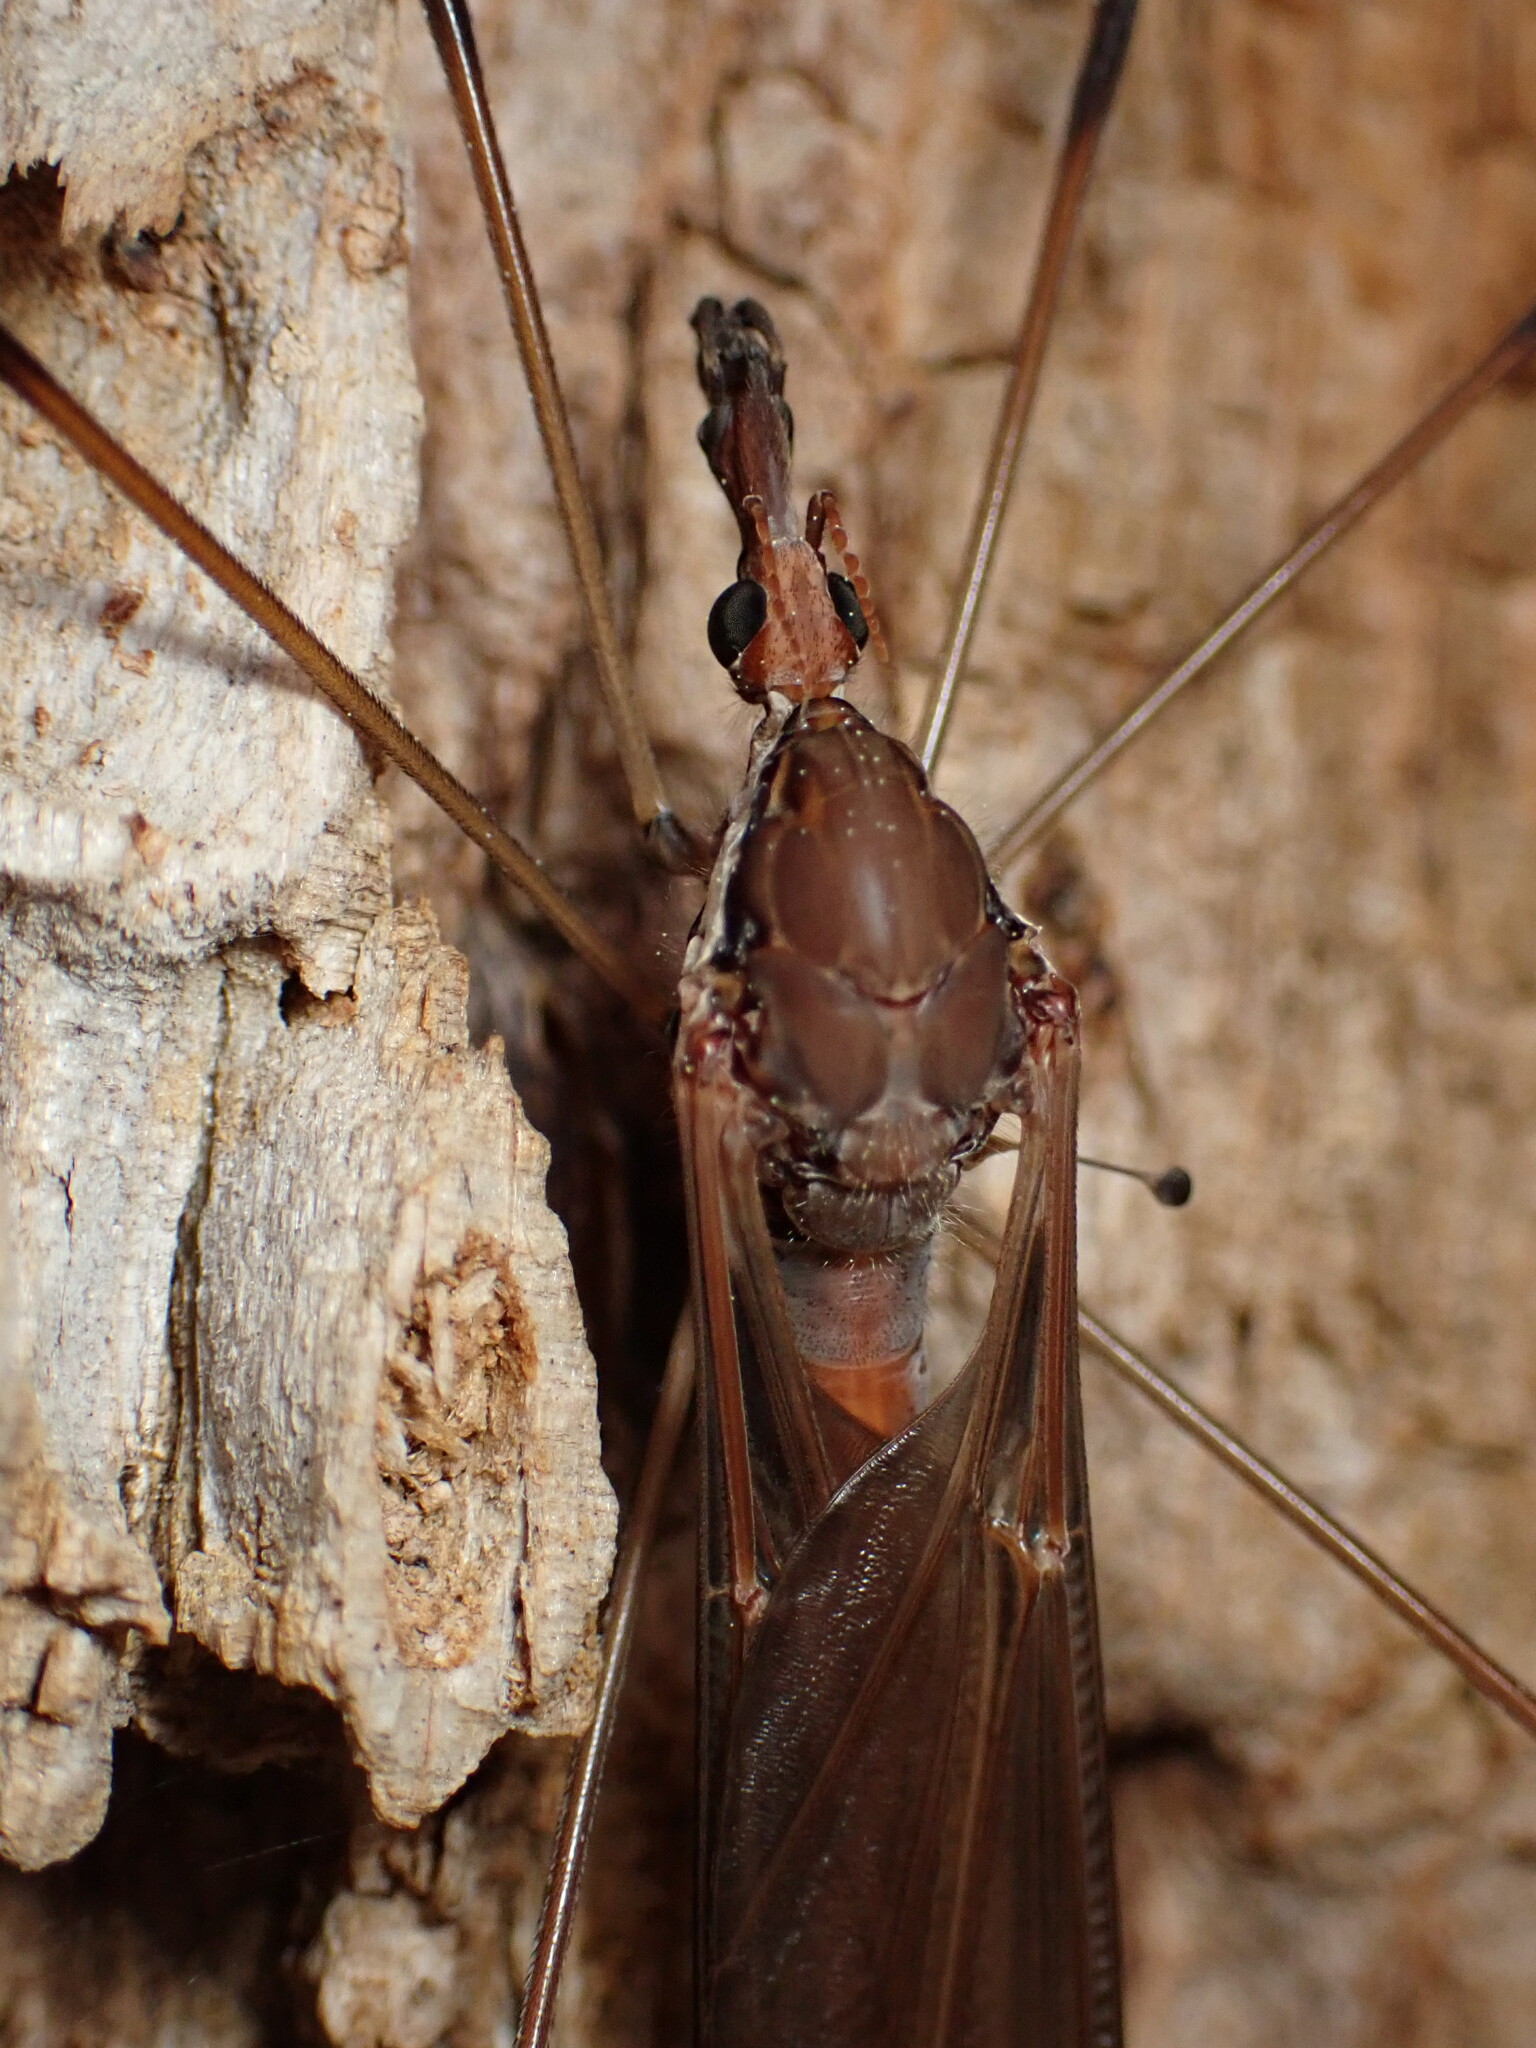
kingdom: Animalia
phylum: Arthropoda
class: Insecta
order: Diptera
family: Tipulidae
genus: Holorusia
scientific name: Holorusia hespera
